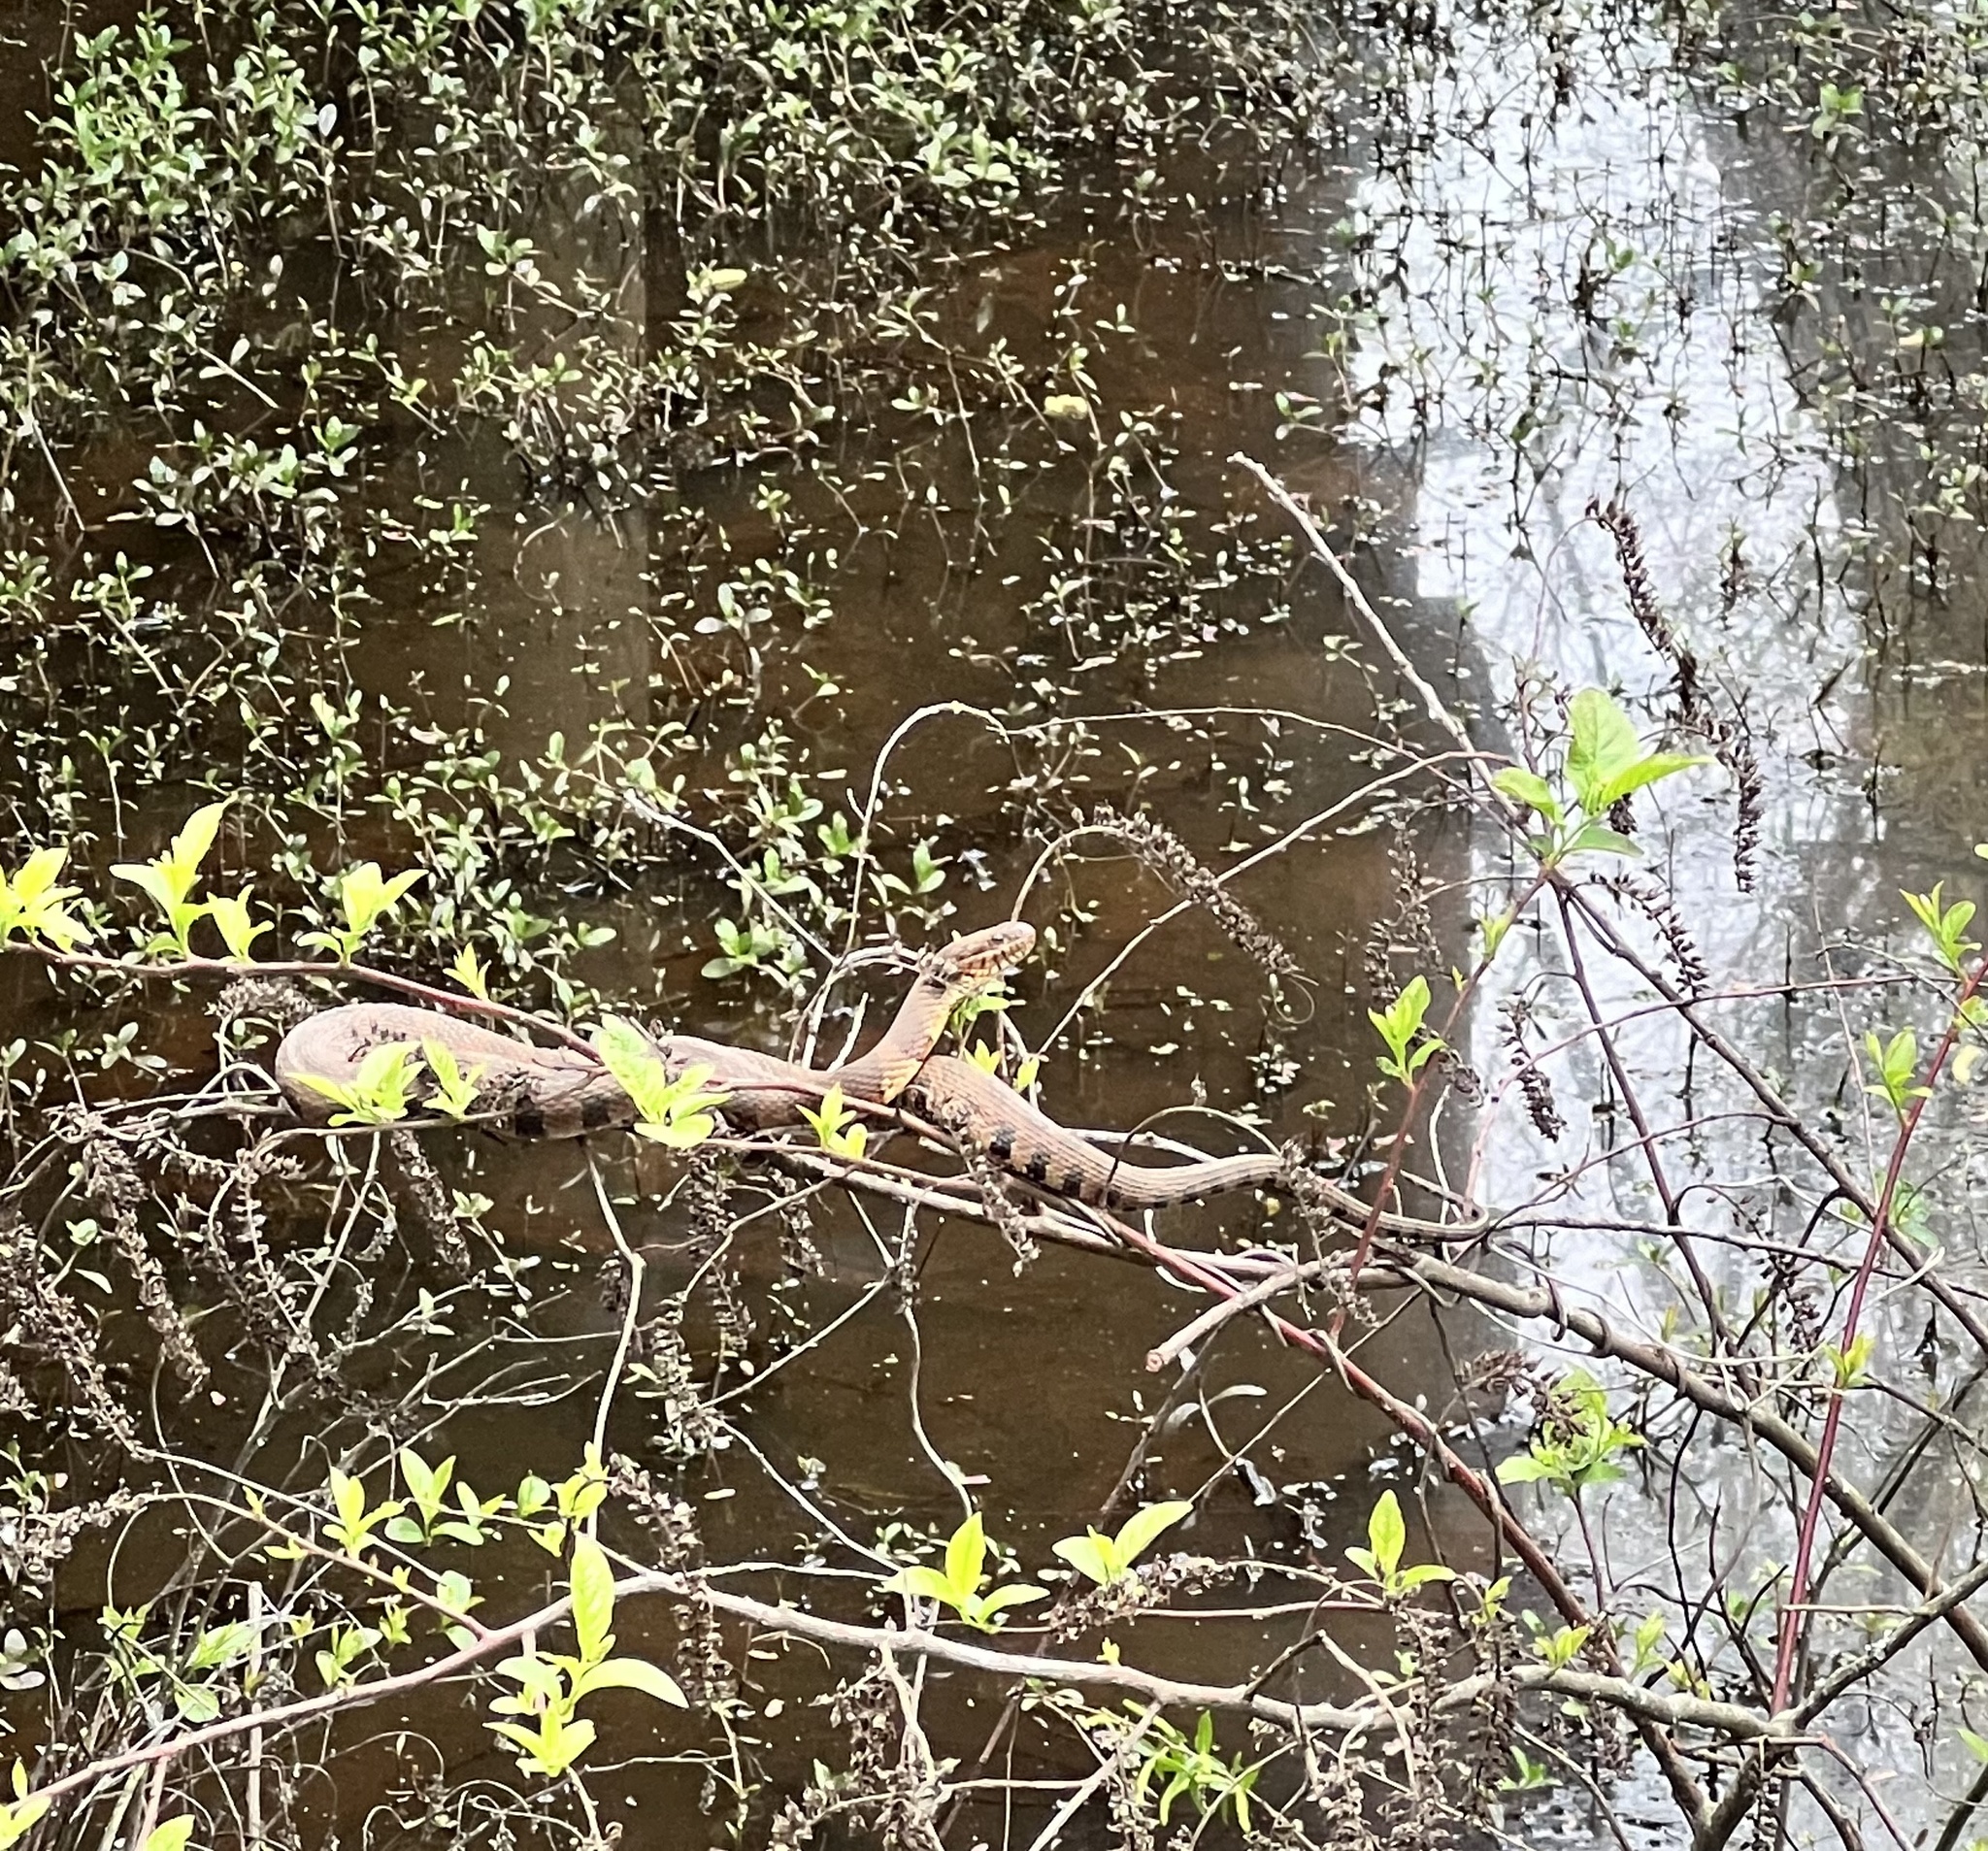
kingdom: Animalia
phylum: Chordata
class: Squamata
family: Colubridae
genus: Nerodia
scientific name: Nerodia sipedon
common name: Northern water snake
